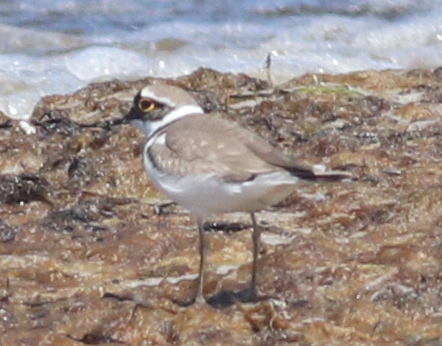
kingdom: Animalia
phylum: Chordata
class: Aves
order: Charadriiformes
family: Charadriidae
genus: Charadrius
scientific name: Charadrius dubius
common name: Little ringed plover
